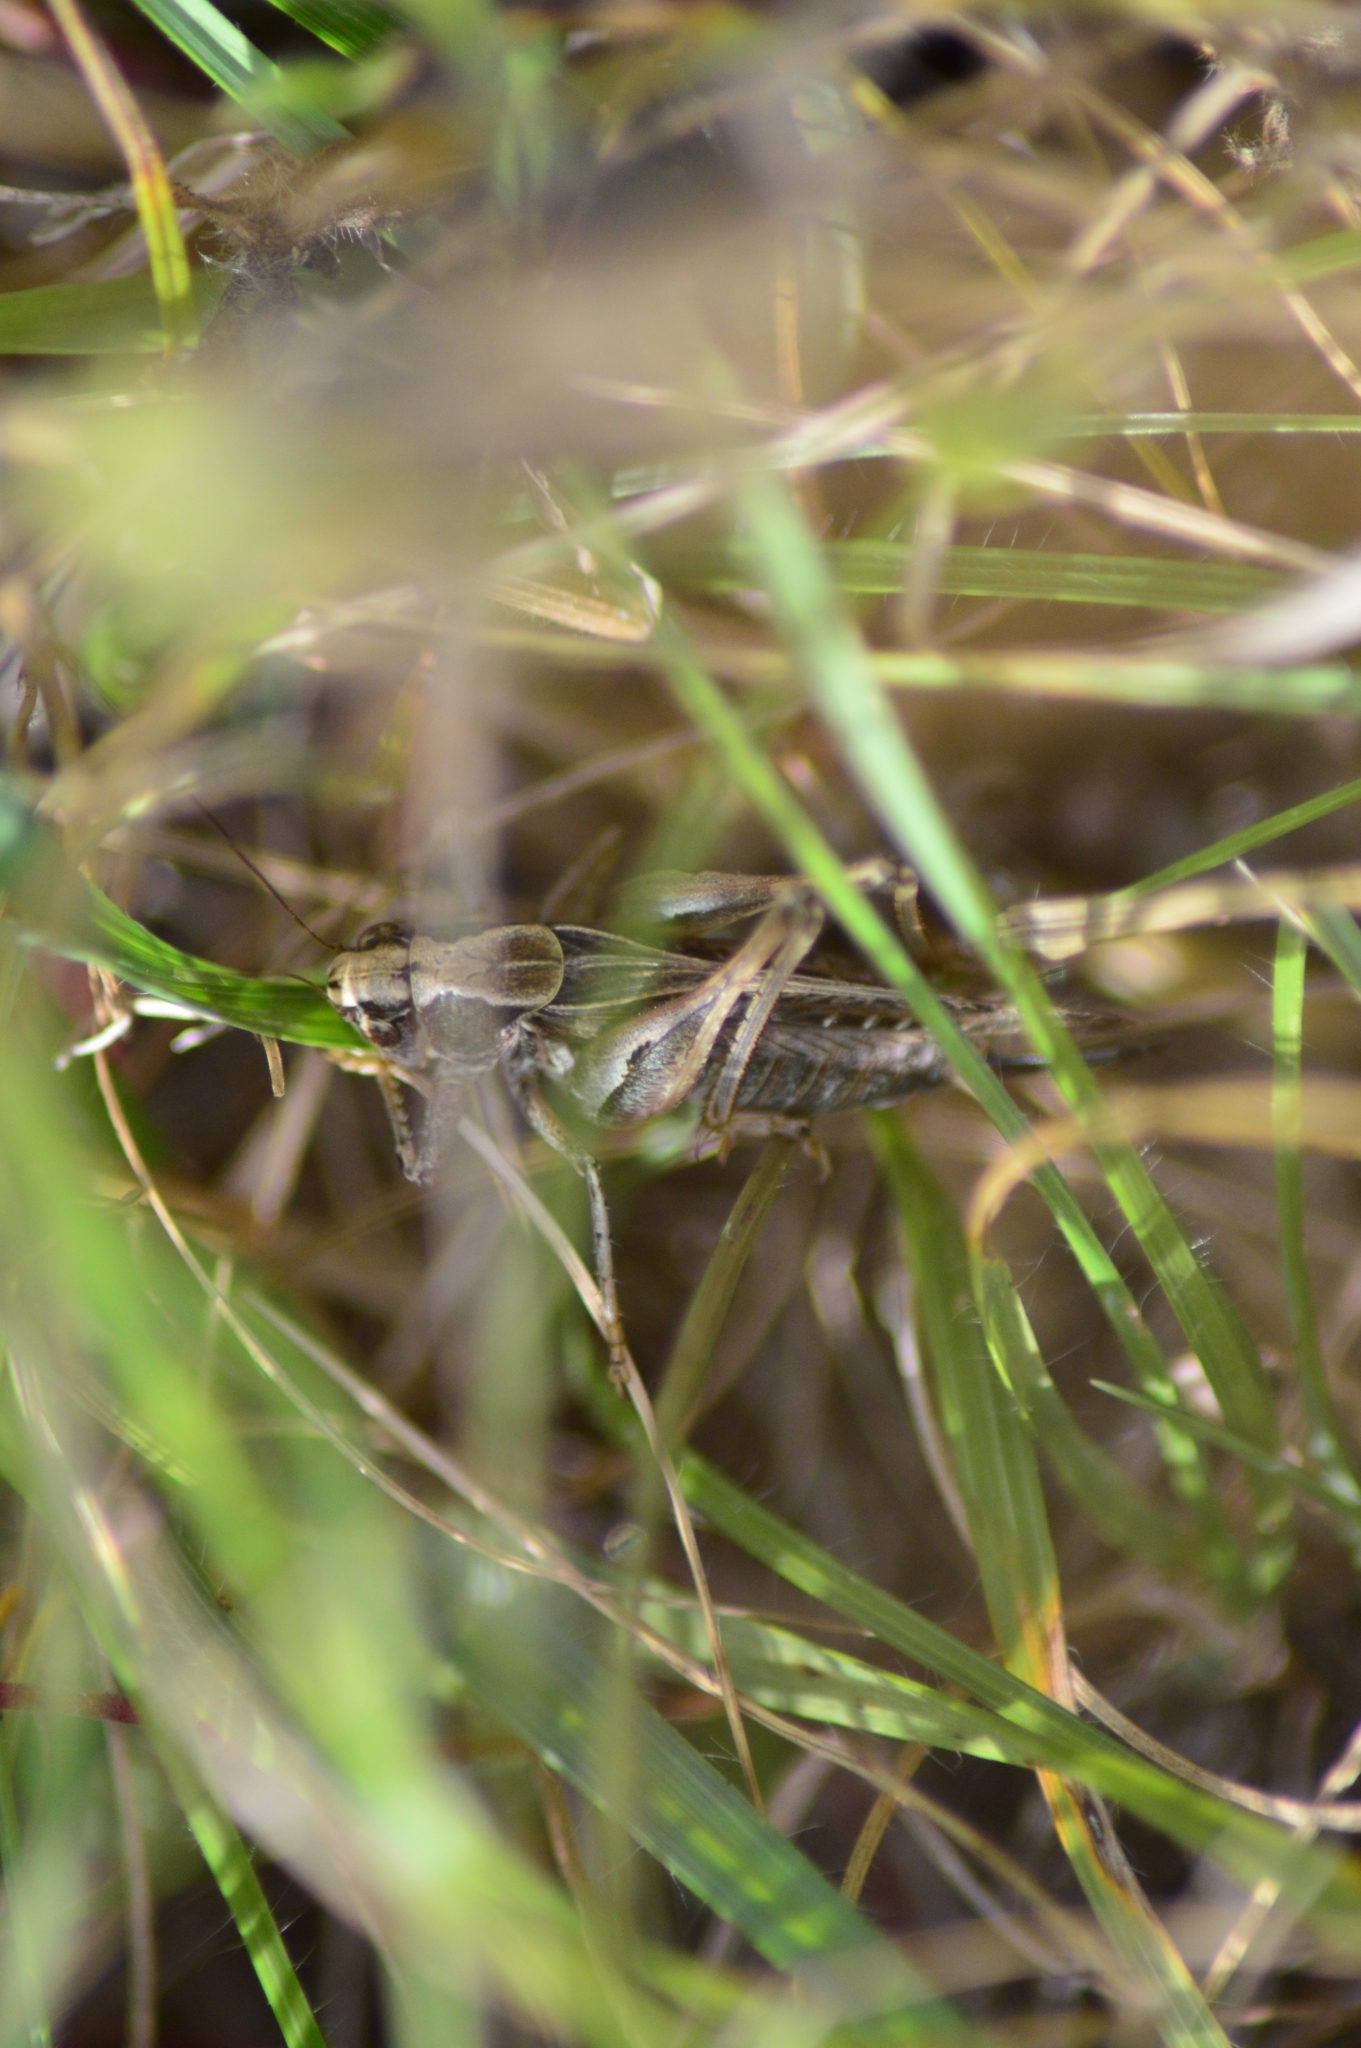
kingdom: Animalia
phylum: Arthropoda
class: Insecta
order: Orthoptera
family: Tettigoniidae
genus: Tessellana
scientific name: Tessellana tessellata
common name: Grasshopper
